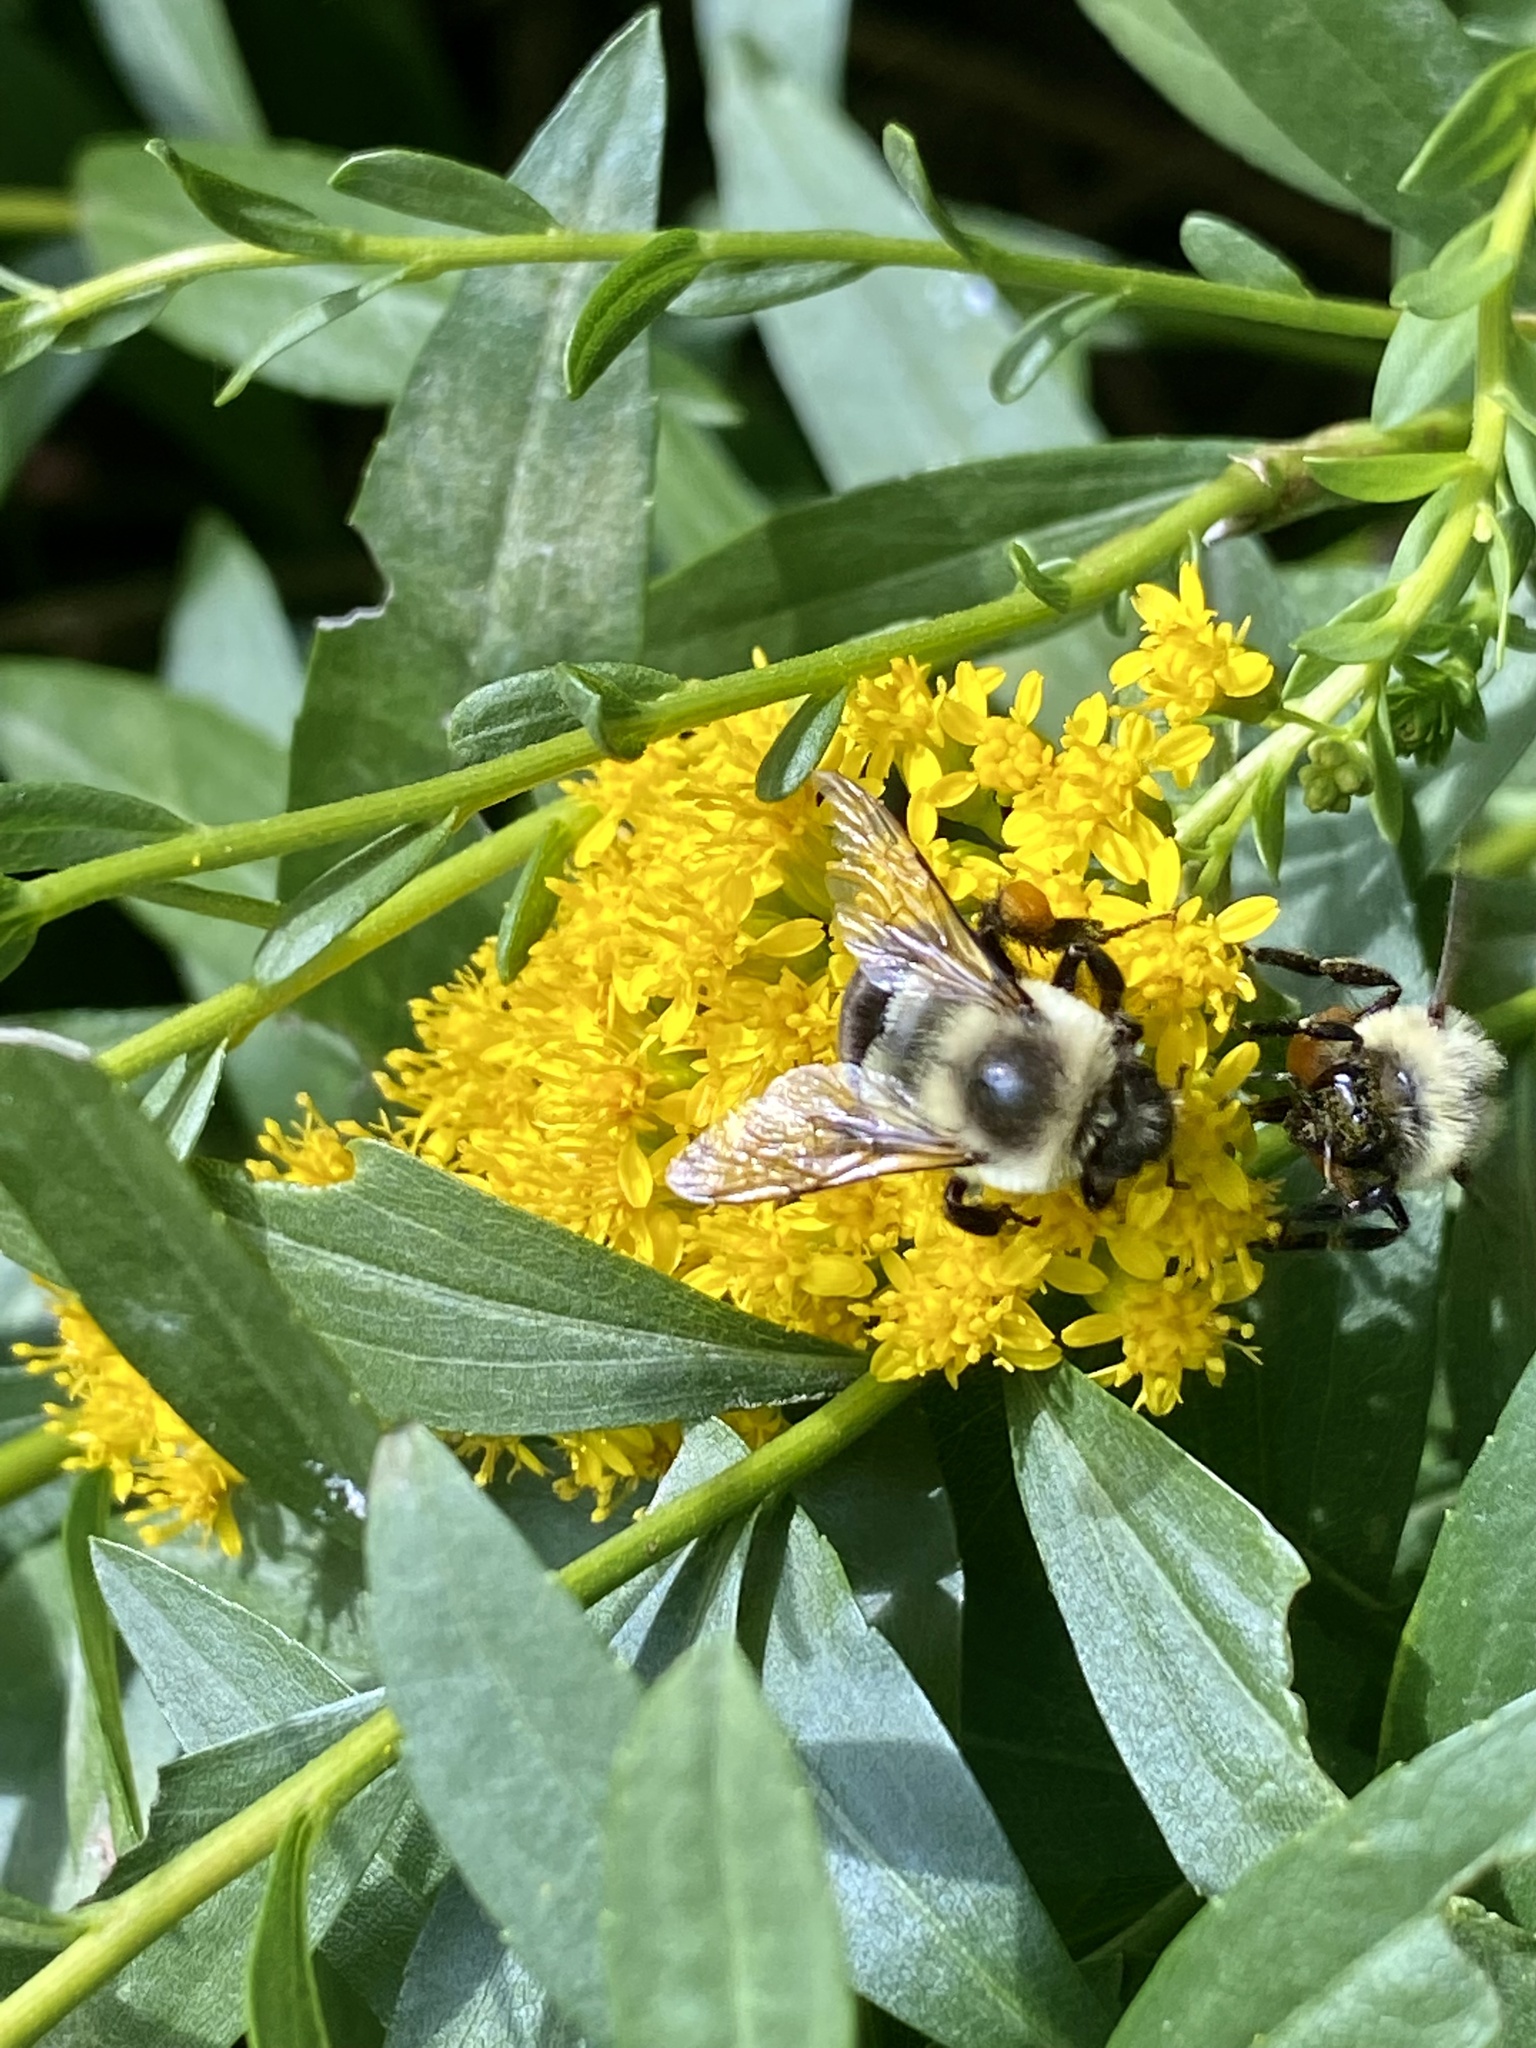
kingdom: Animalia
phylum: Arthropoda
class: Insecta
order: Hymenoptera
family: Apidae
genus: Bombus
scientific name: Bombus impatiens
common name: Common eastern bumble bee
